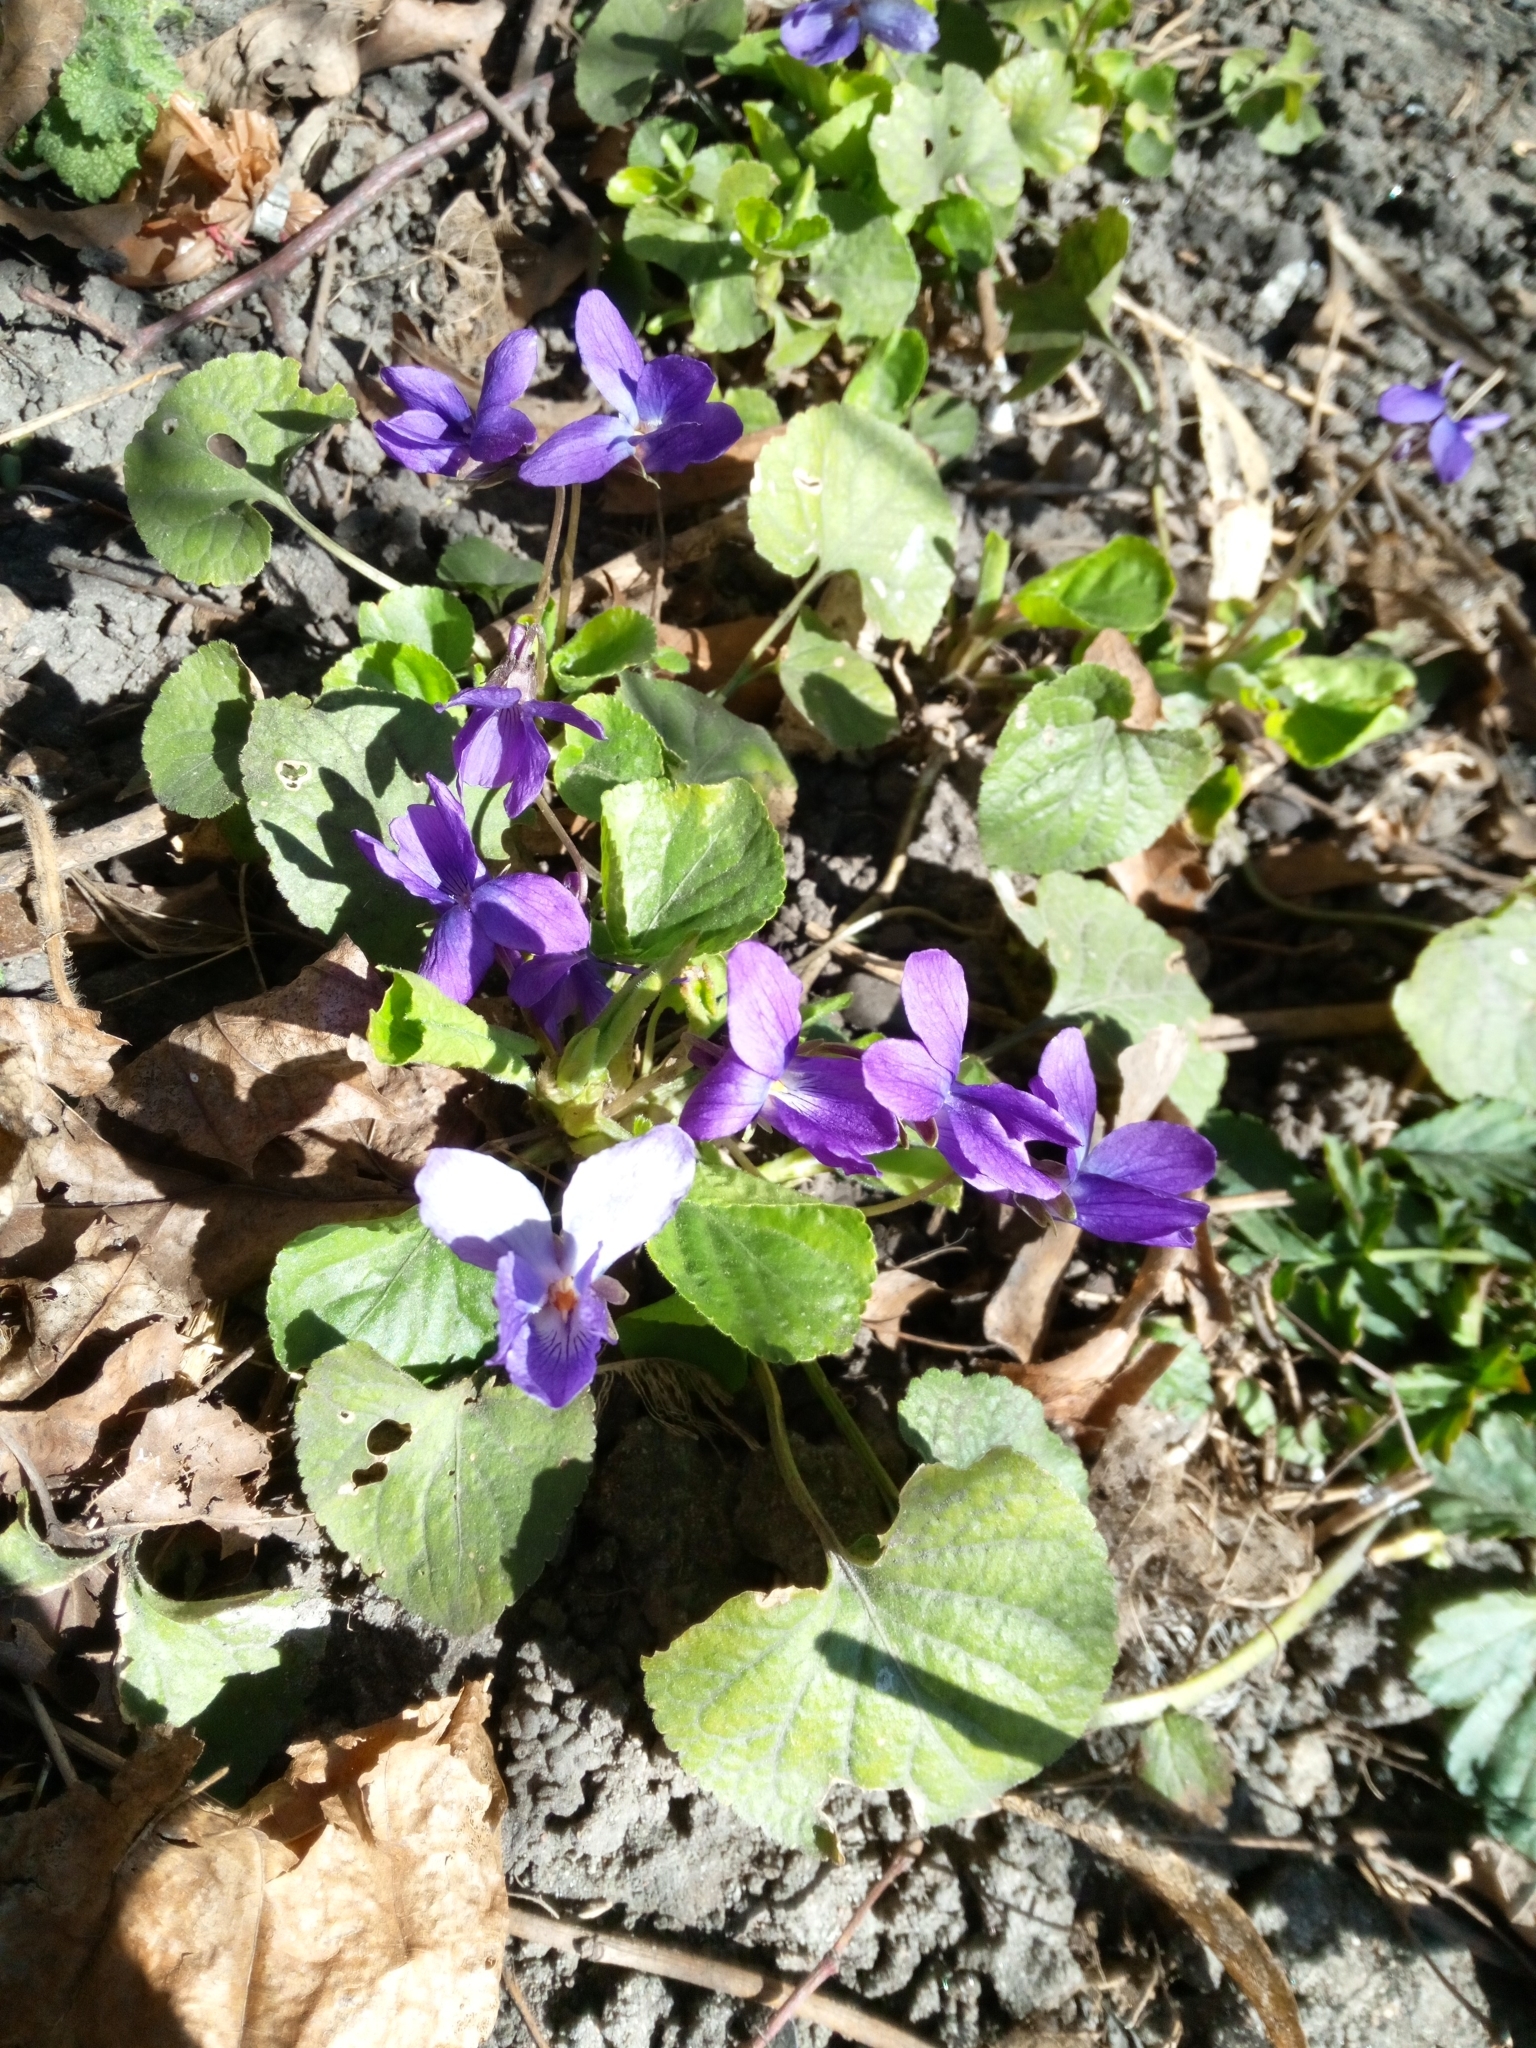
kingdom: Plantae
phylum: Tracheophyta
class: Magnoliopsida
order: Malpighiales
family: Violaceae
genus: Viola
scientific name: Viola odorata
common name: Sweet violet
